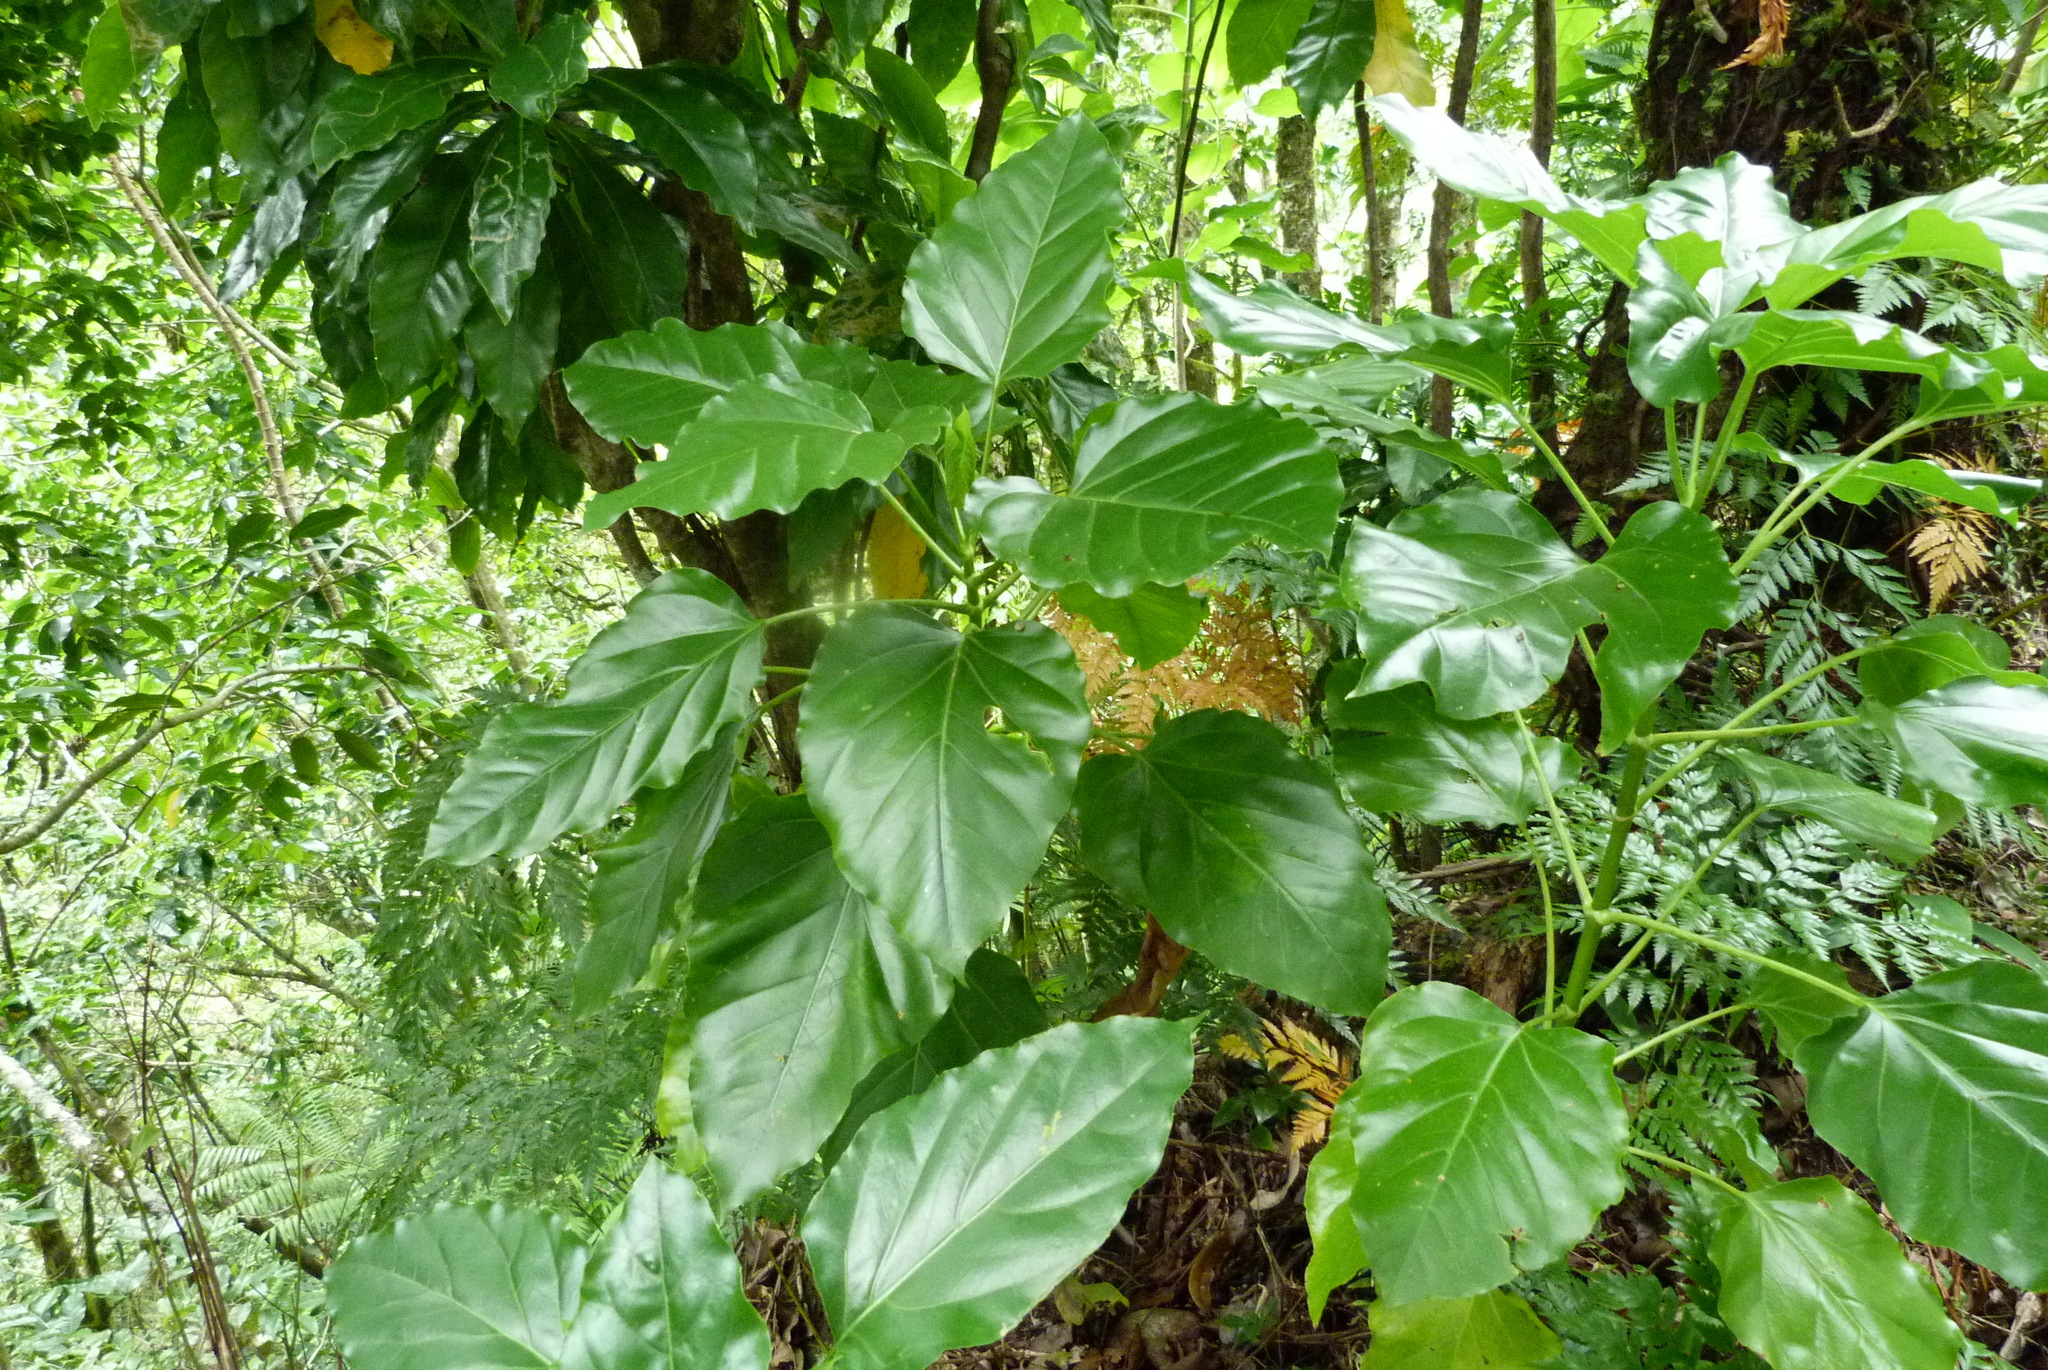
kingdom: Plantae
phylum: Tracheophyta
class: Magnoliopsida
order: Asterales
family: Asteraceae
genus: Fitchia
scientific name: Fitchia speciosa
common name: Burr daisytree
